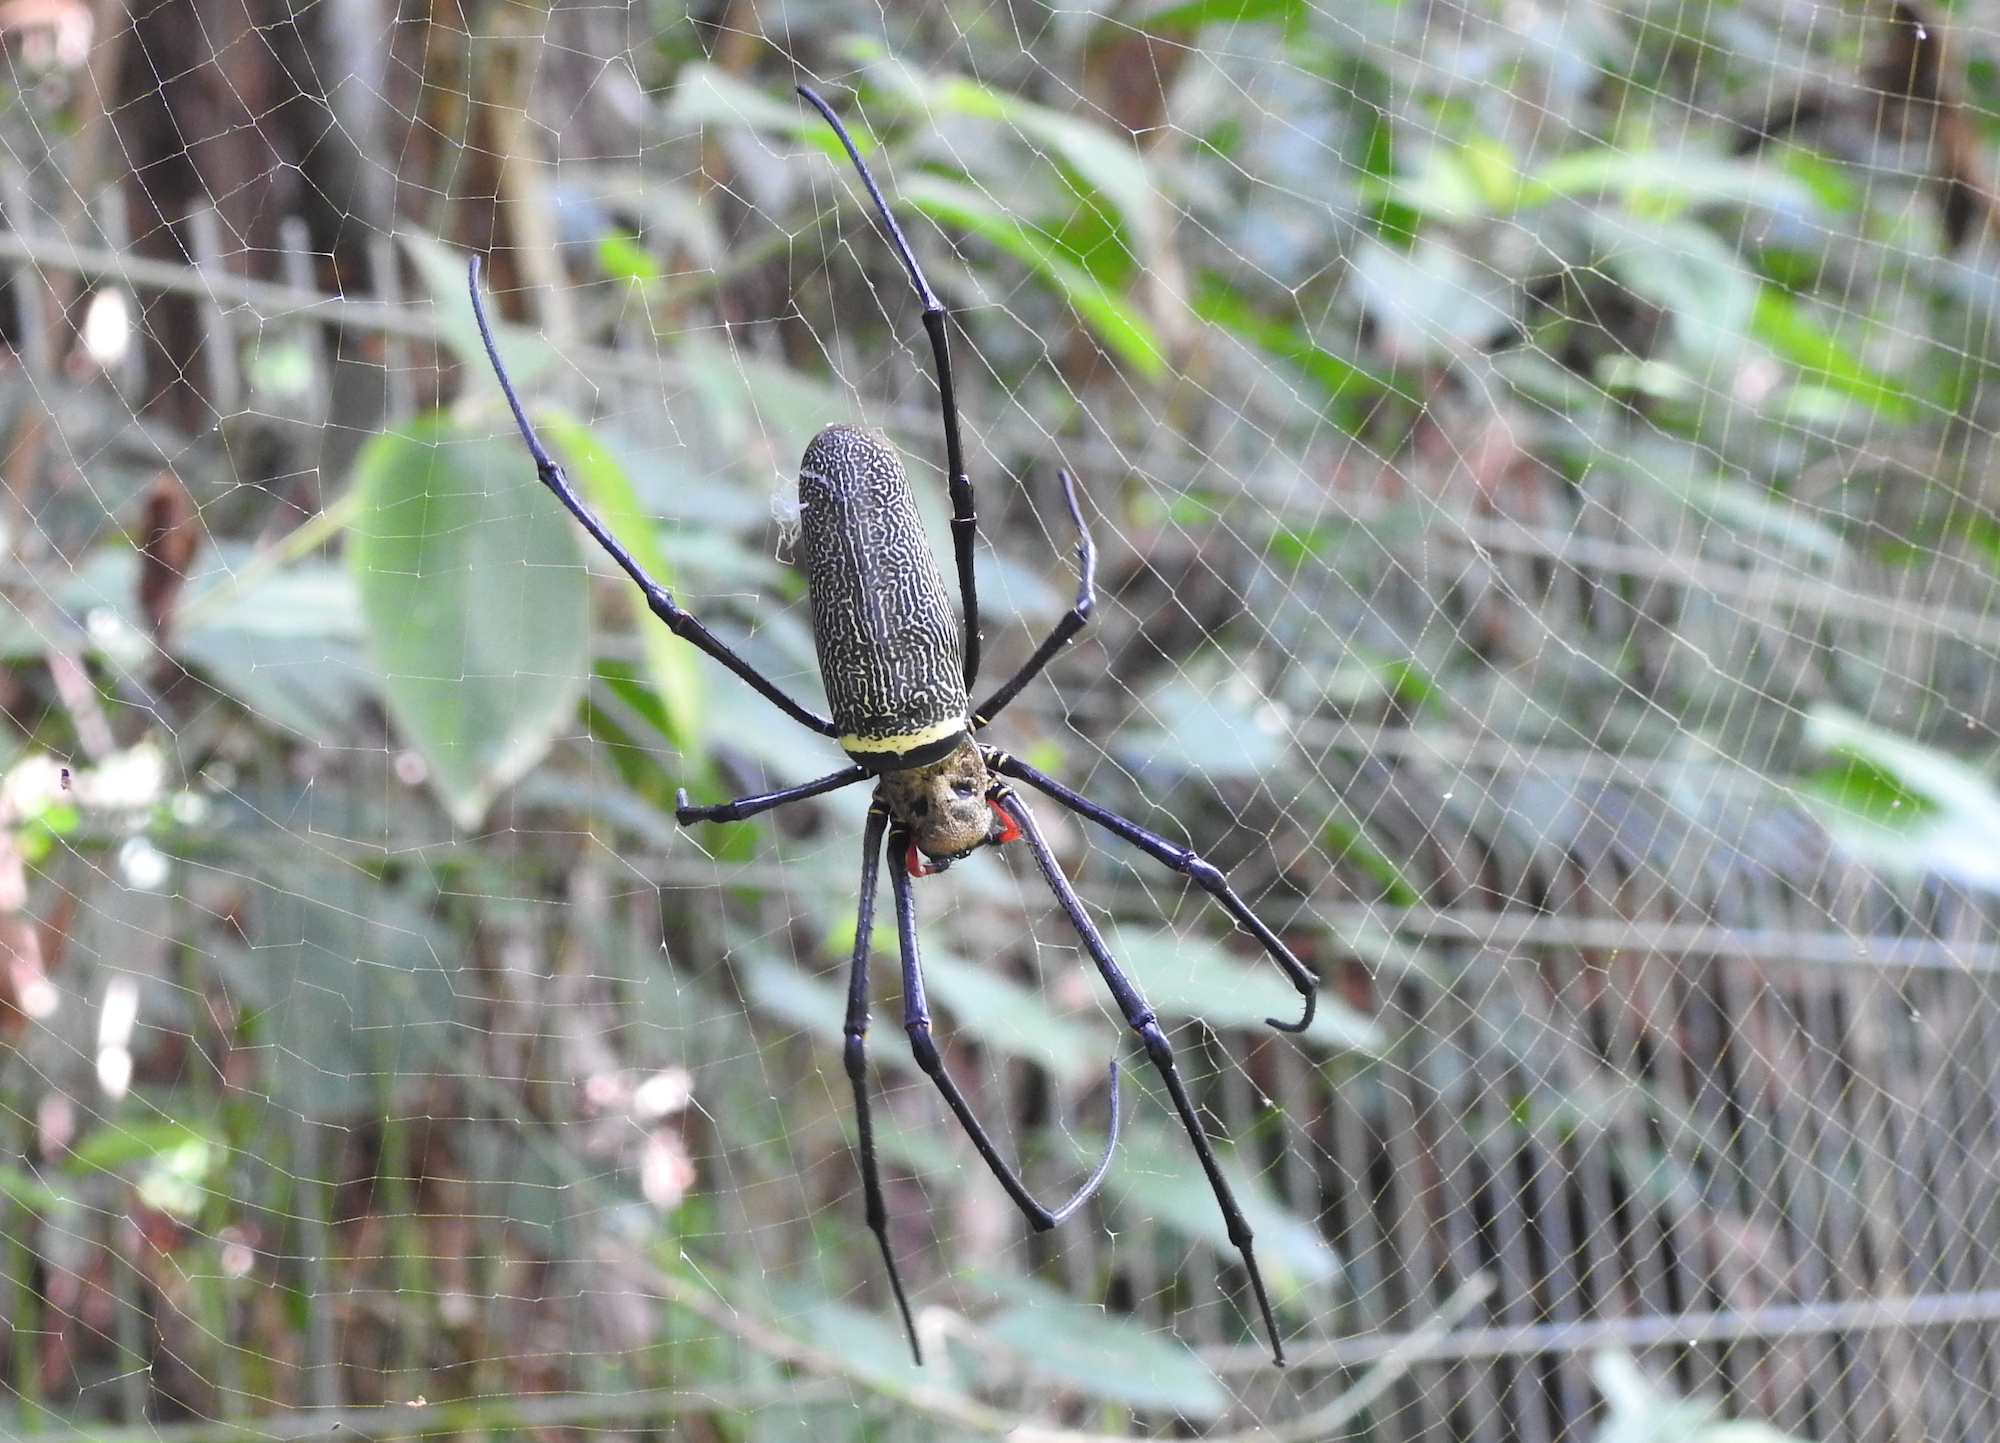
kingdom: Animalia
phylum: Arthropoda
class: Arachnida
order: Araneae
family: Araneidae
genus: Nephila
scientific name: Nephila pilipes
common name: Giant golden orb weaver
